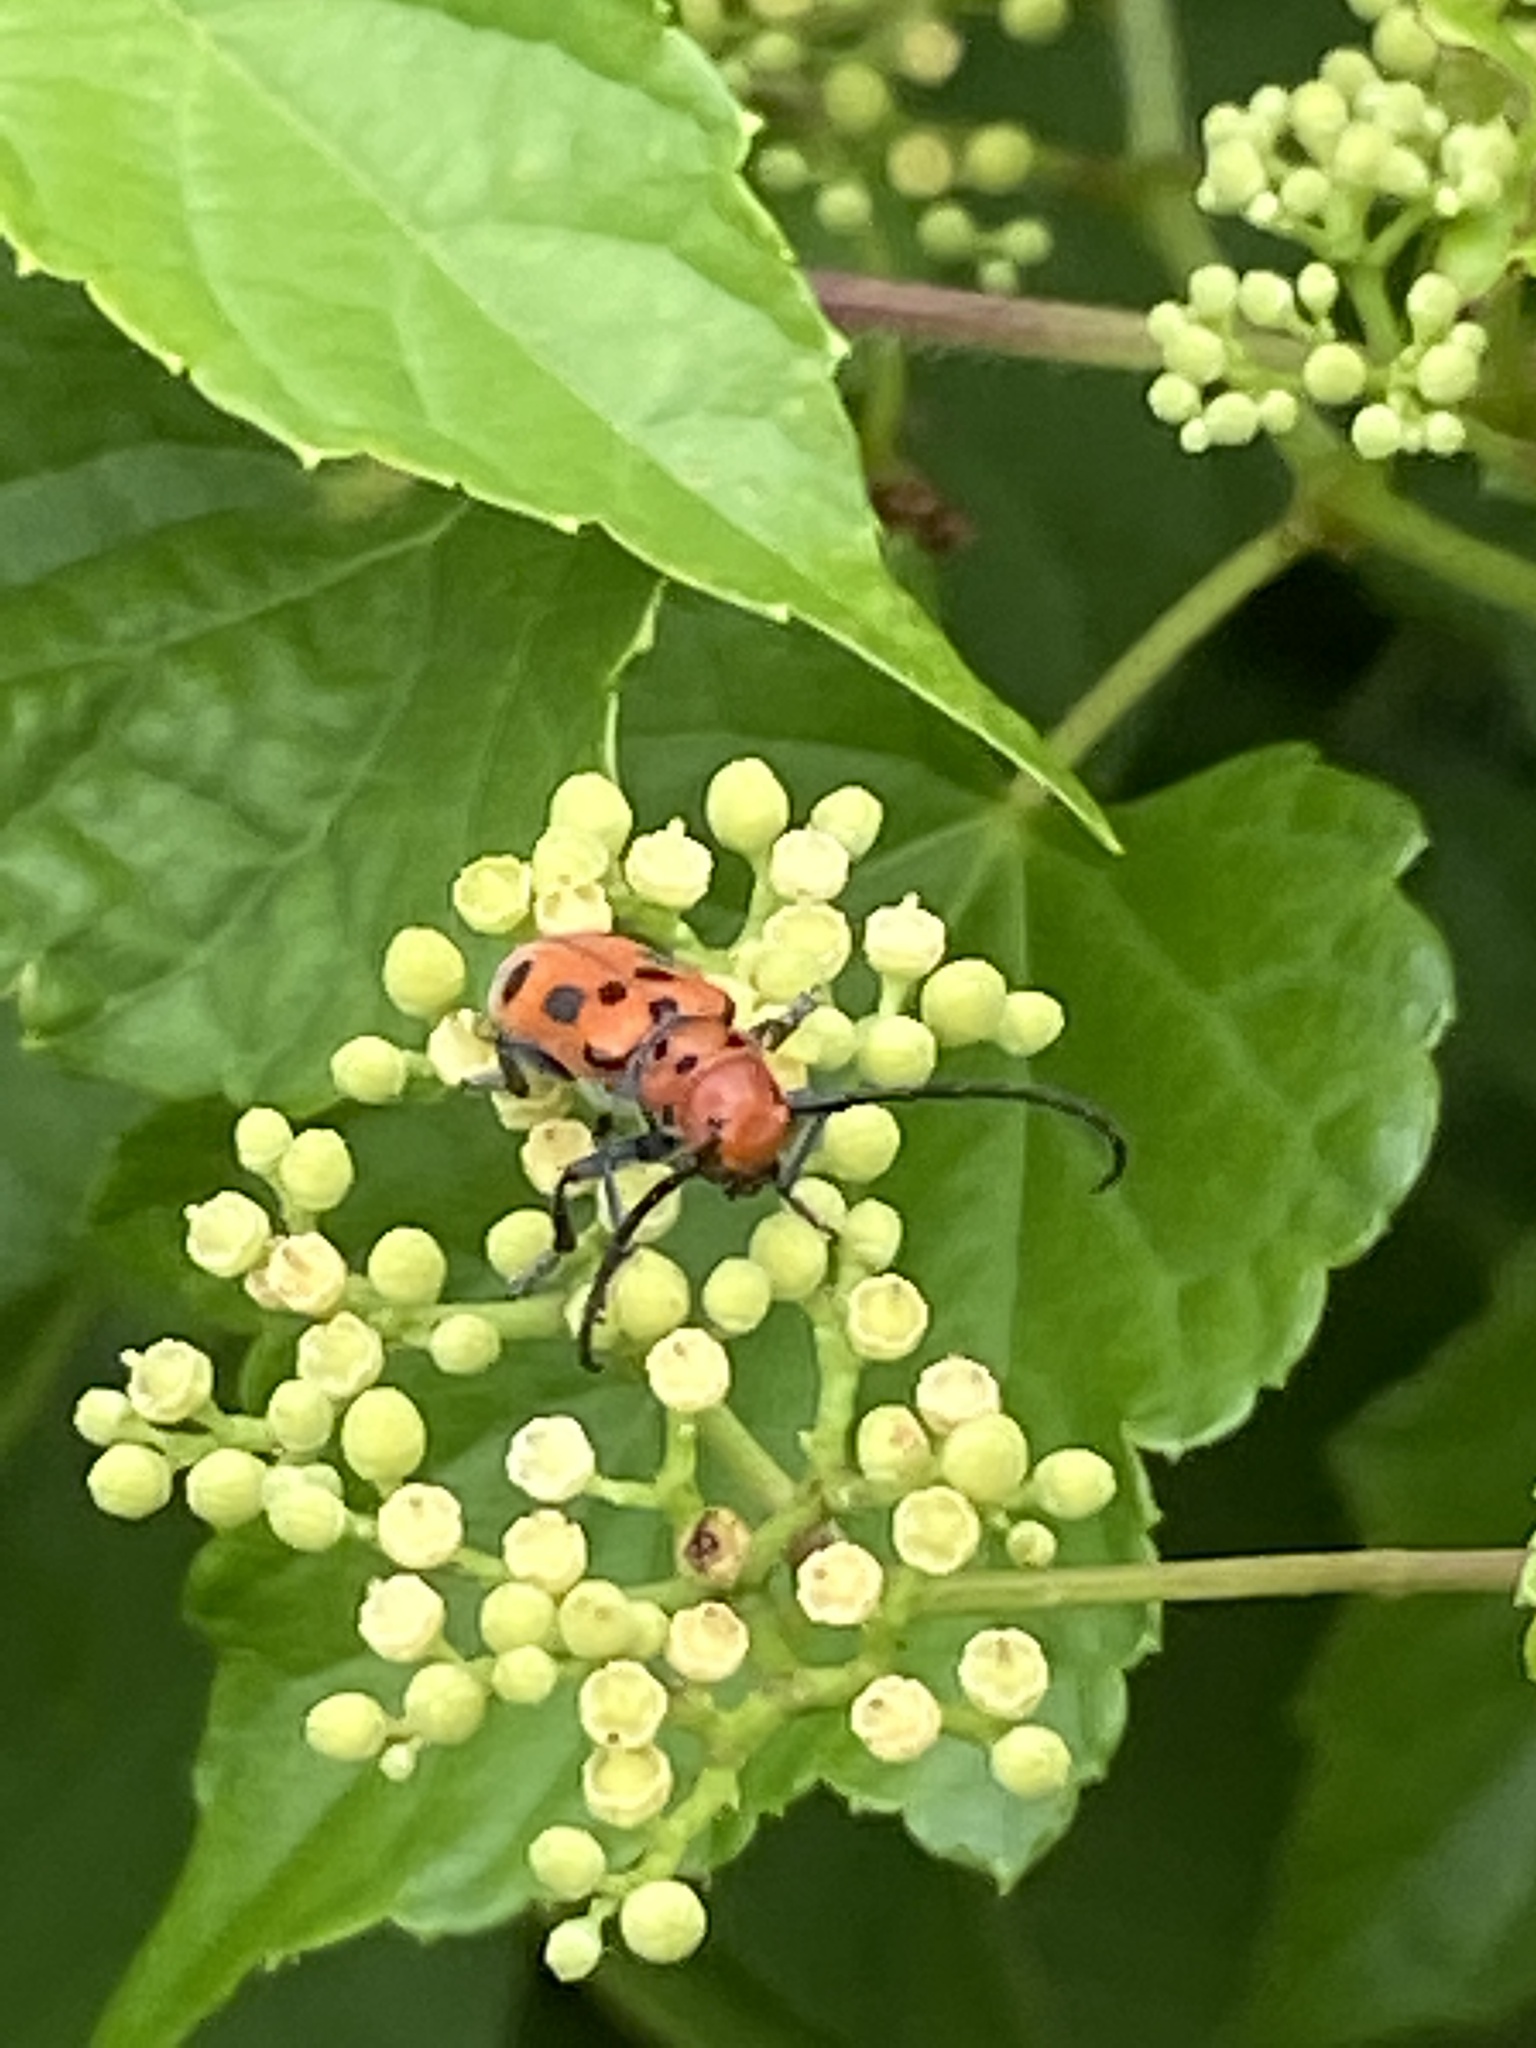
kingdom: Animalia
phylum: Arthropoda
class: Insecta
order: Coleoptera
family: Cerambycidae
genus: Tetraopes
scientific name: Tetraopes tetrophthalmus
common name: Red milkweed beetle
